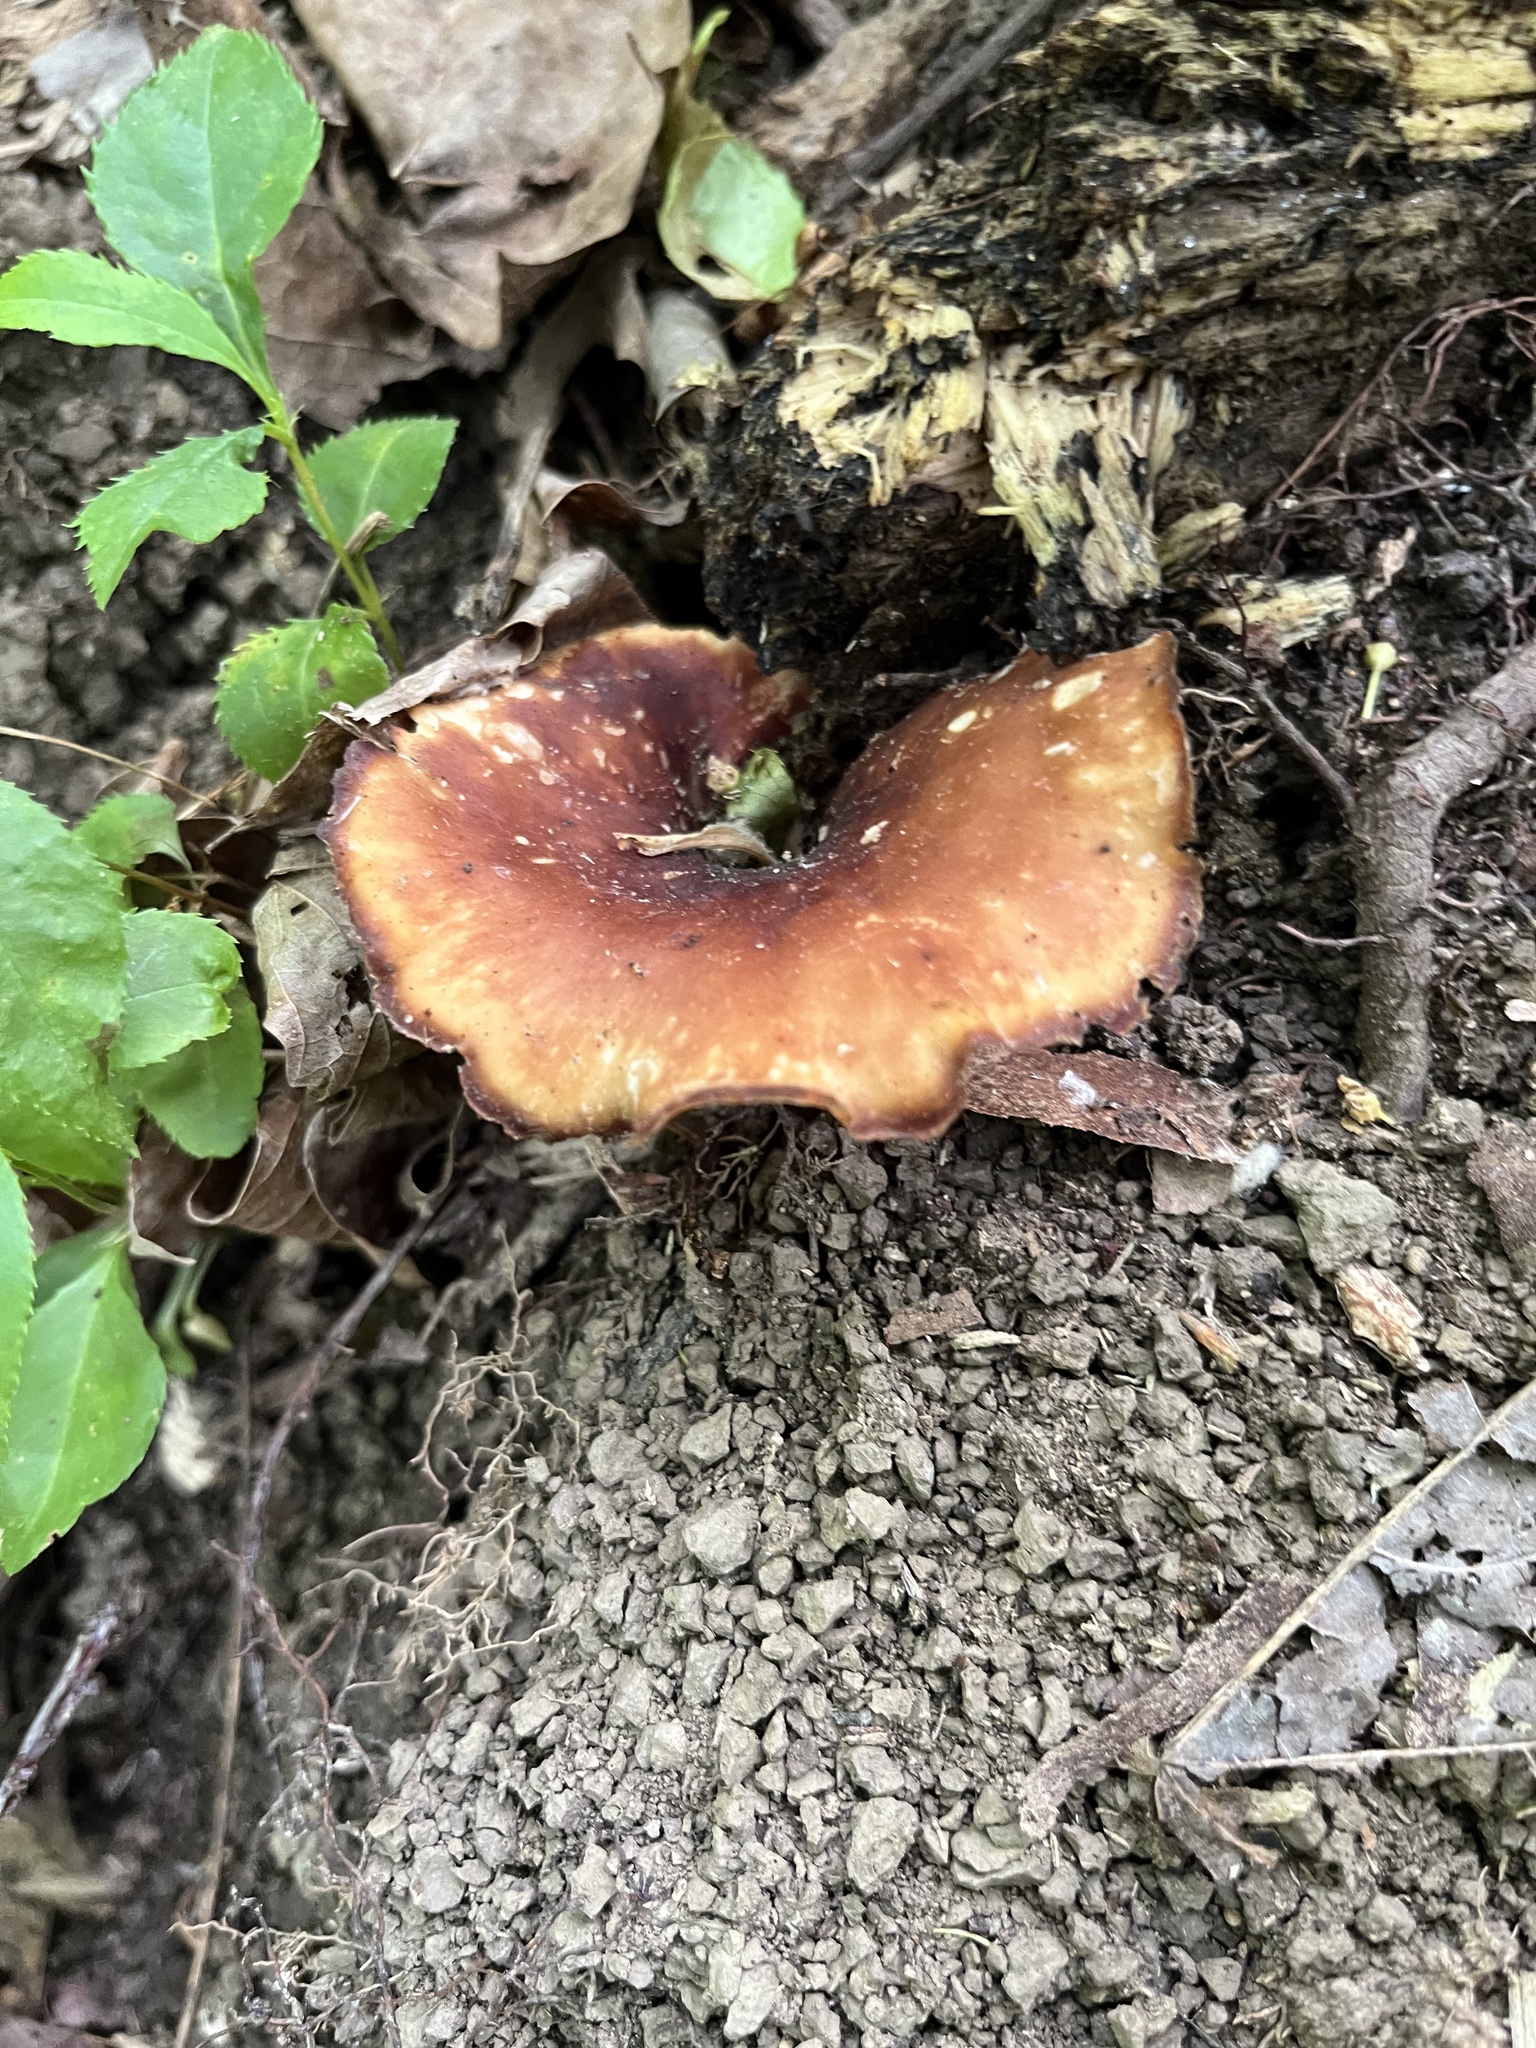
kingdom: Fungi
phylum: Basidiomycota
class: Agaricomycetes
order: Polyporales
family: Polyporaceae
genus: Picipes
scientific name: Picipes badius
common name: Bay polypore
